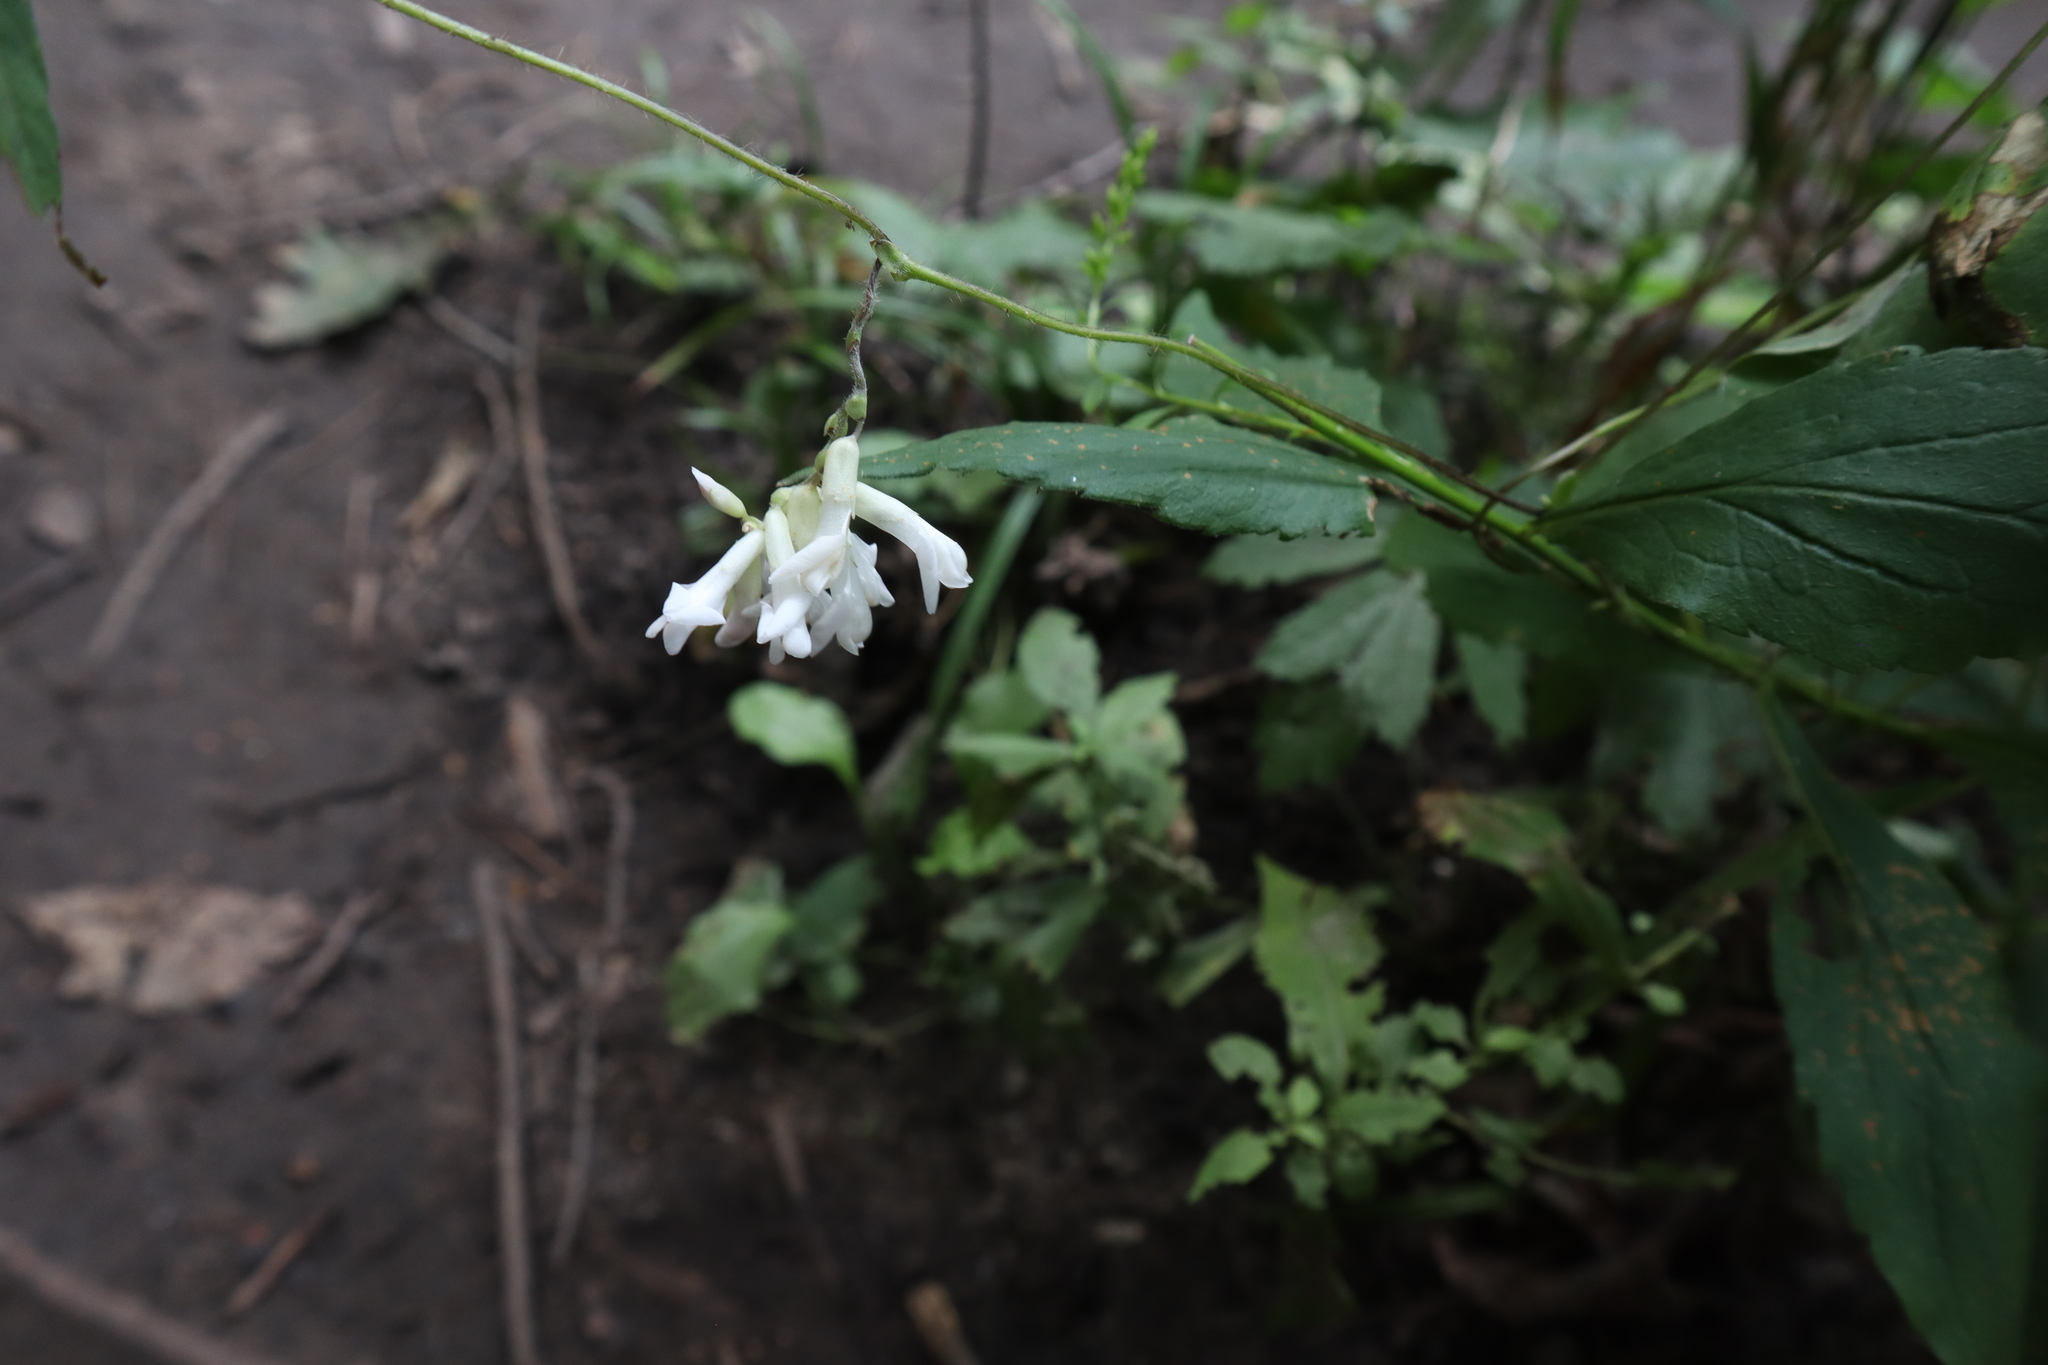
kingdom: Plantae
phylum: Tracheophyta
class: Magnoliopsida
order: Fabales
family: Fabaceae
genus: Amphicarpaea
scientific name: Amphicarpaea bracteata
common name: American hog peanut
